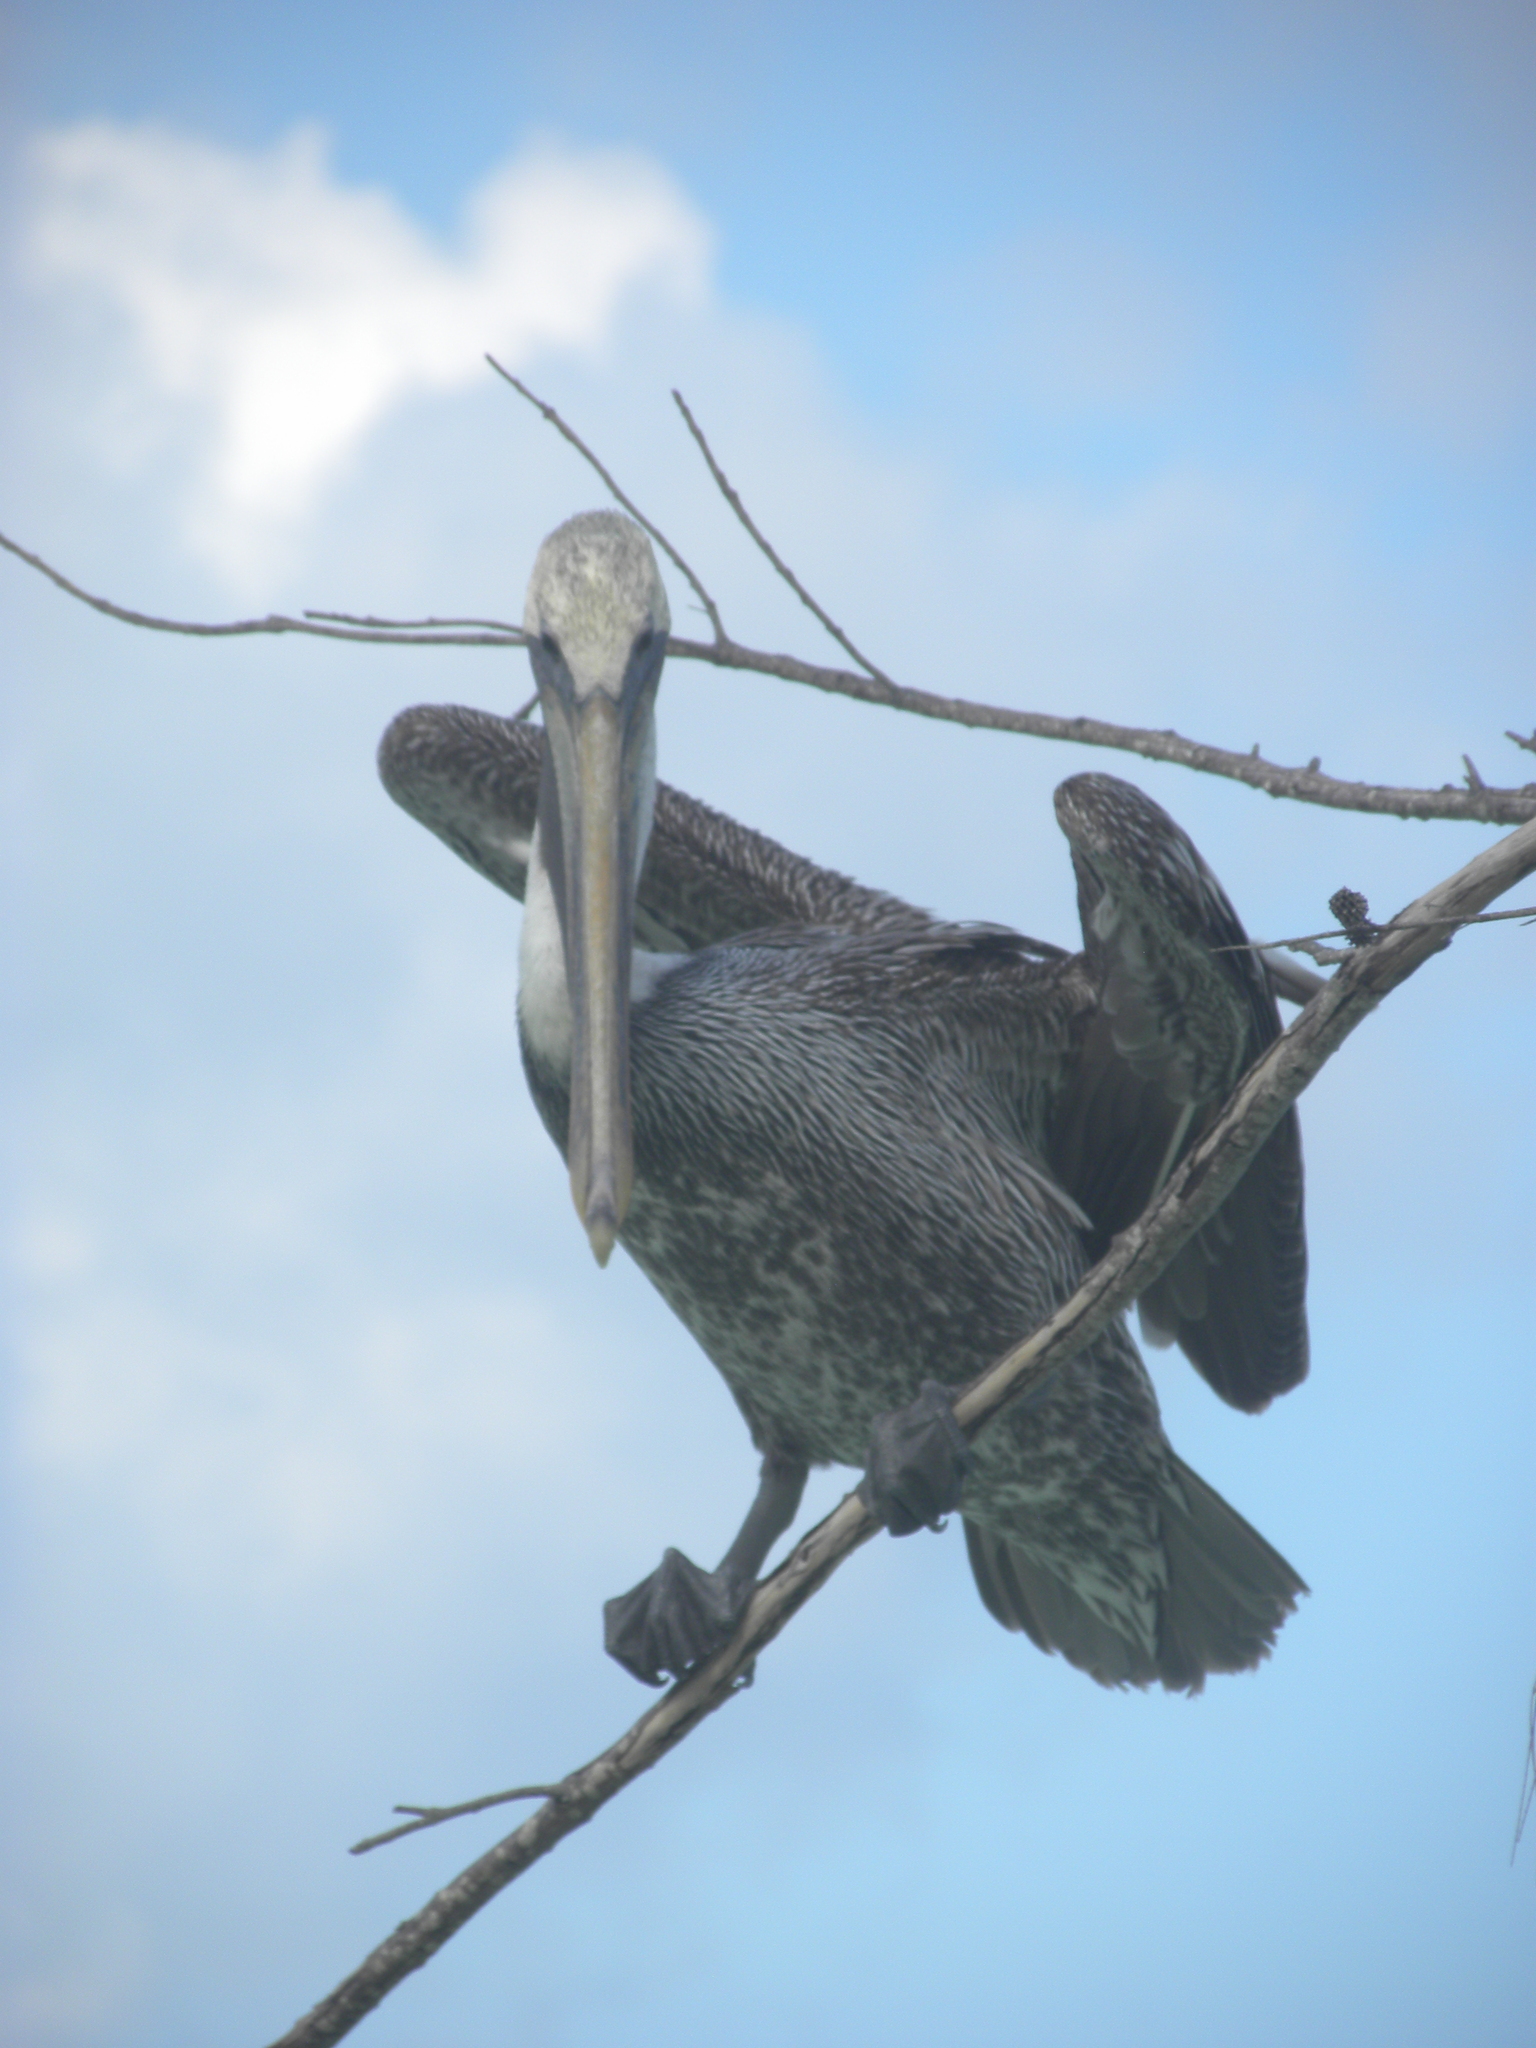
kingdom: Animalia
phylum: Chordata
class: Aves
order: Pelecaniformes
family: Pelecanidae
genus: Pelecanus
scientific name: Pelecanus occidentalis
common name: Brown pelican
